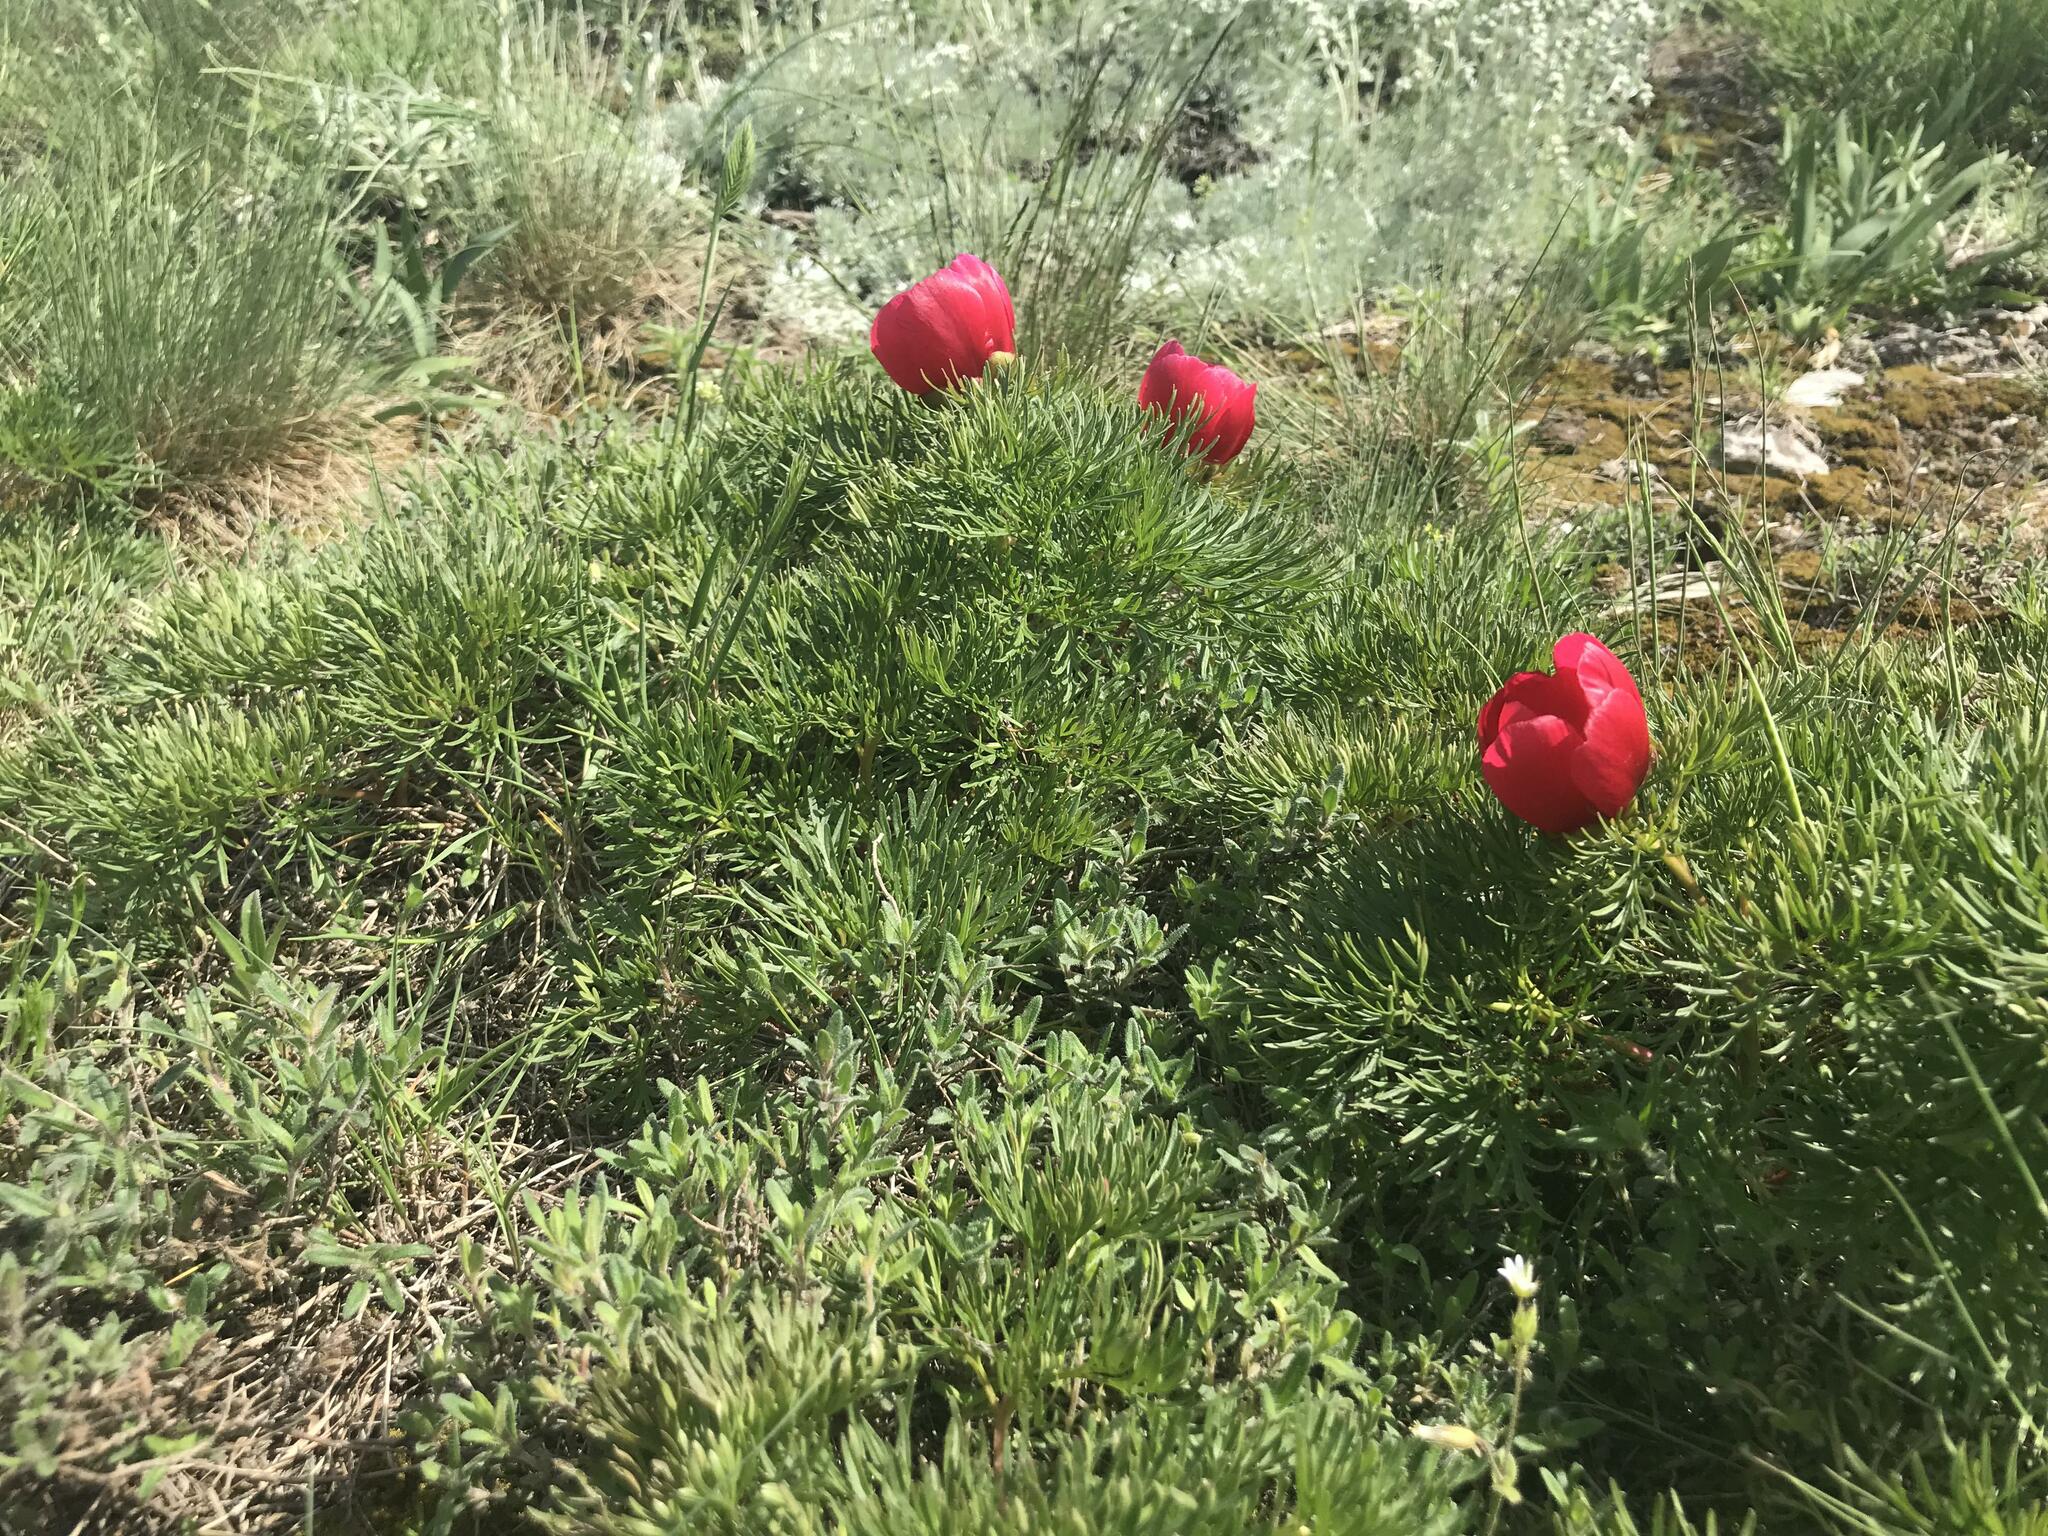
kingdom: Plantae
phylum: Tracheophyta
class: Magnoliopsida
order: Saxifragales
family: Paeoniaceae
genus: Paeonia
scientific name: Paeonia tenuifolia
